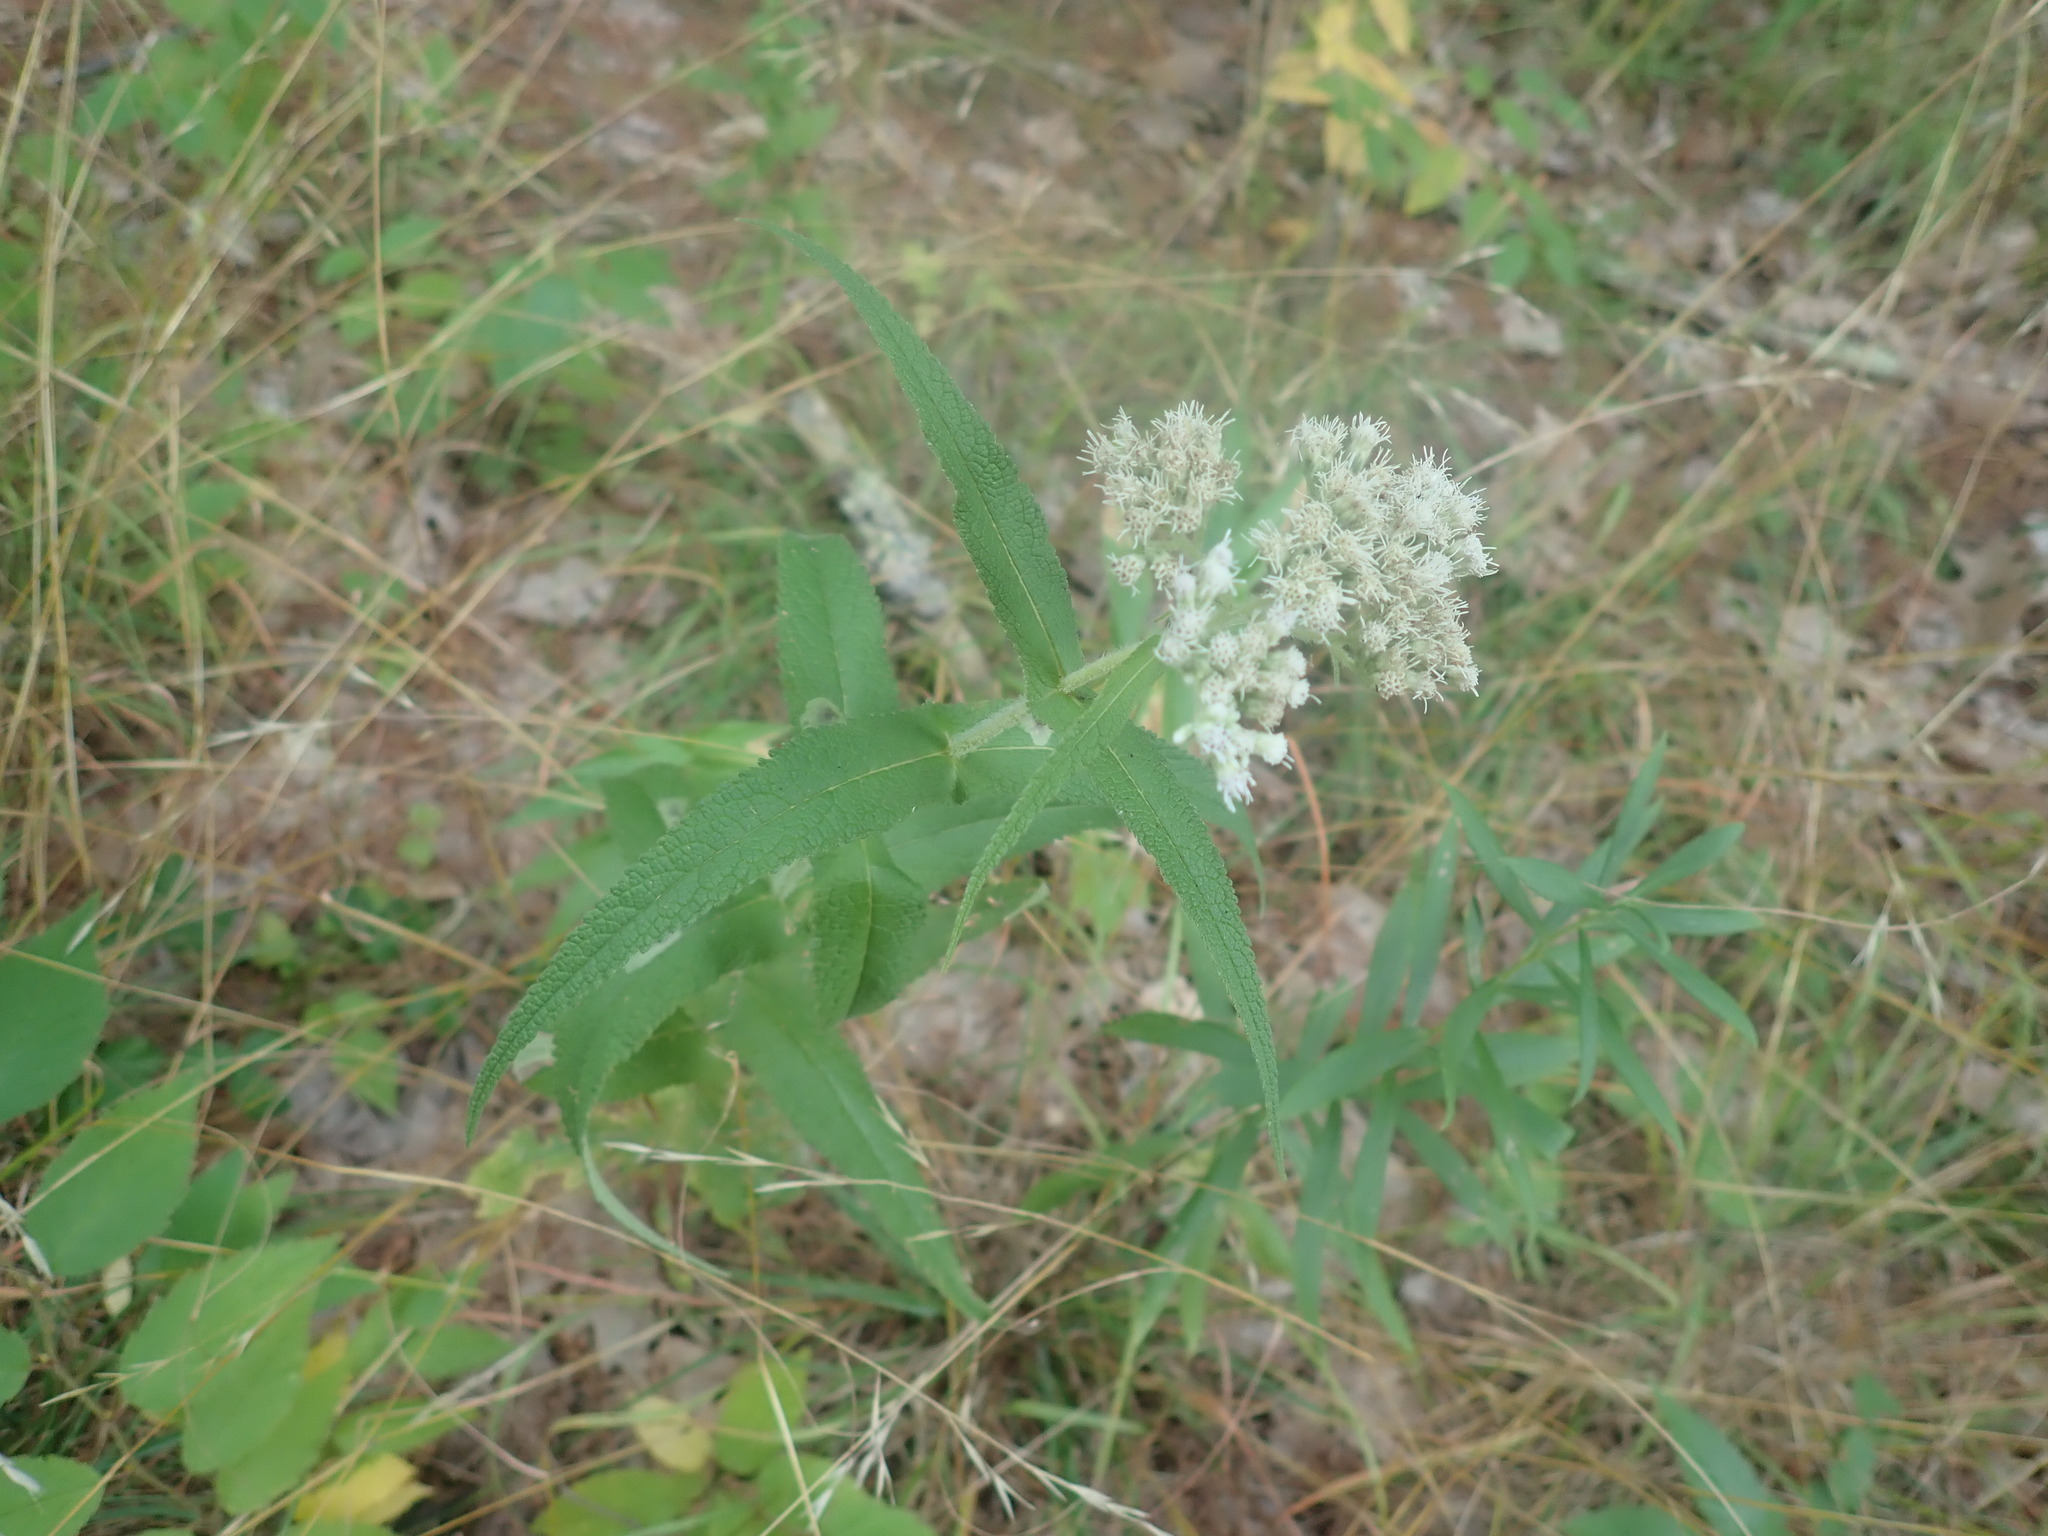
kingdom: Plantae
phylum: Tracheophyta
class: Magnoliopsida
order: Asterales
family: Asteraceae
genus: Eupatorium
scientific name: Eupatorium perfoliatum
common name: Boneset
